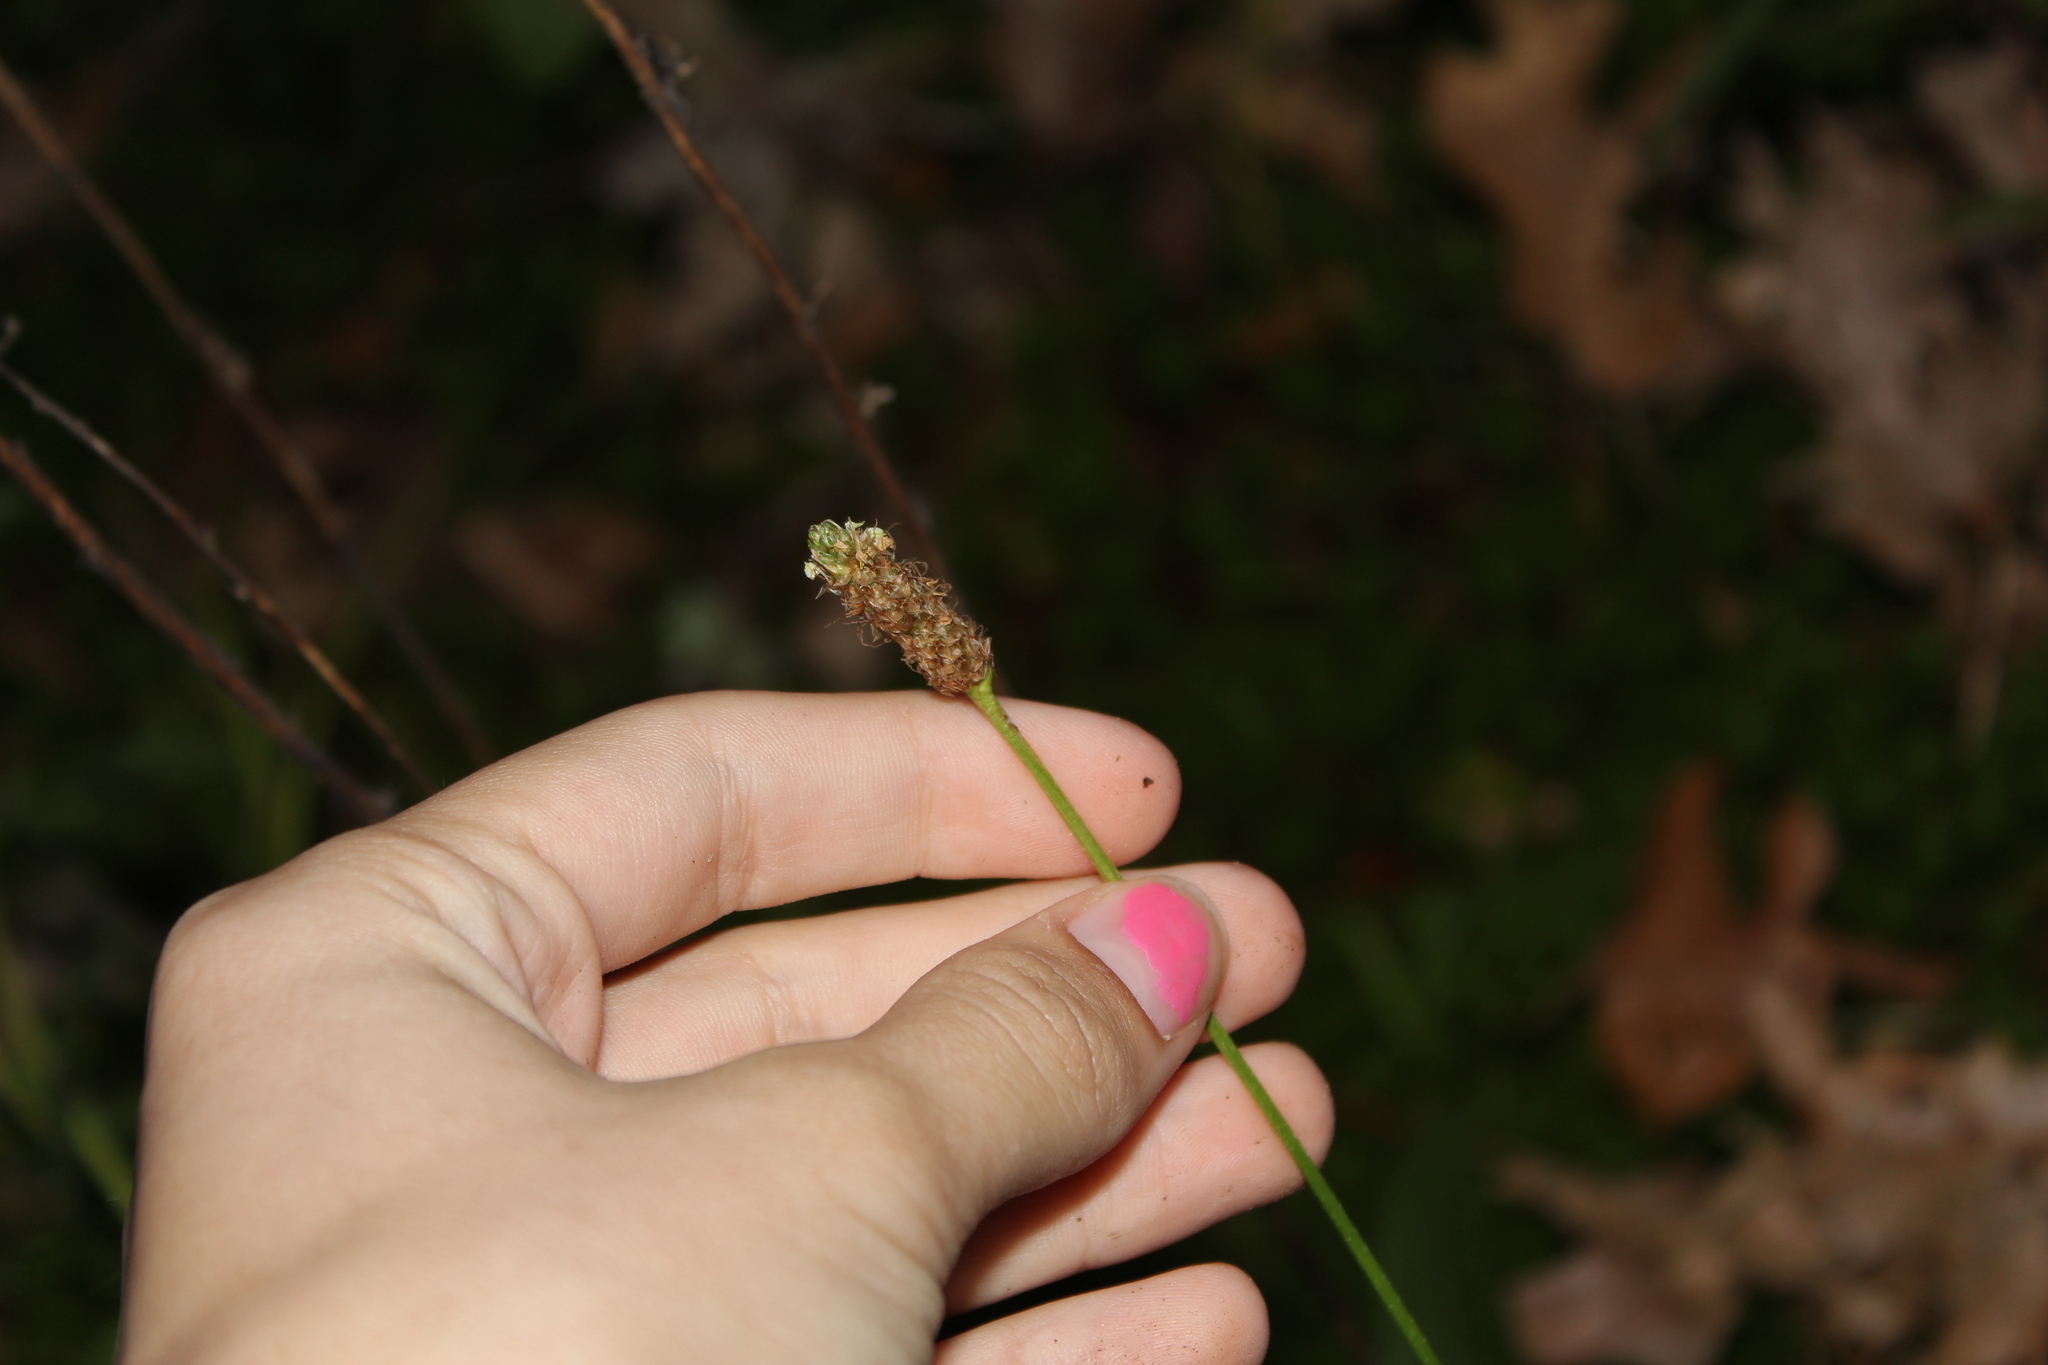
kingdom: Plantae
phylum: Tracheophyta
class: Magnoliopsida
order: Lamiales
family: Plantaginaceae
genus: Plantago
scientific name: Plantago lanceolata
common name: Ribwort plantain
